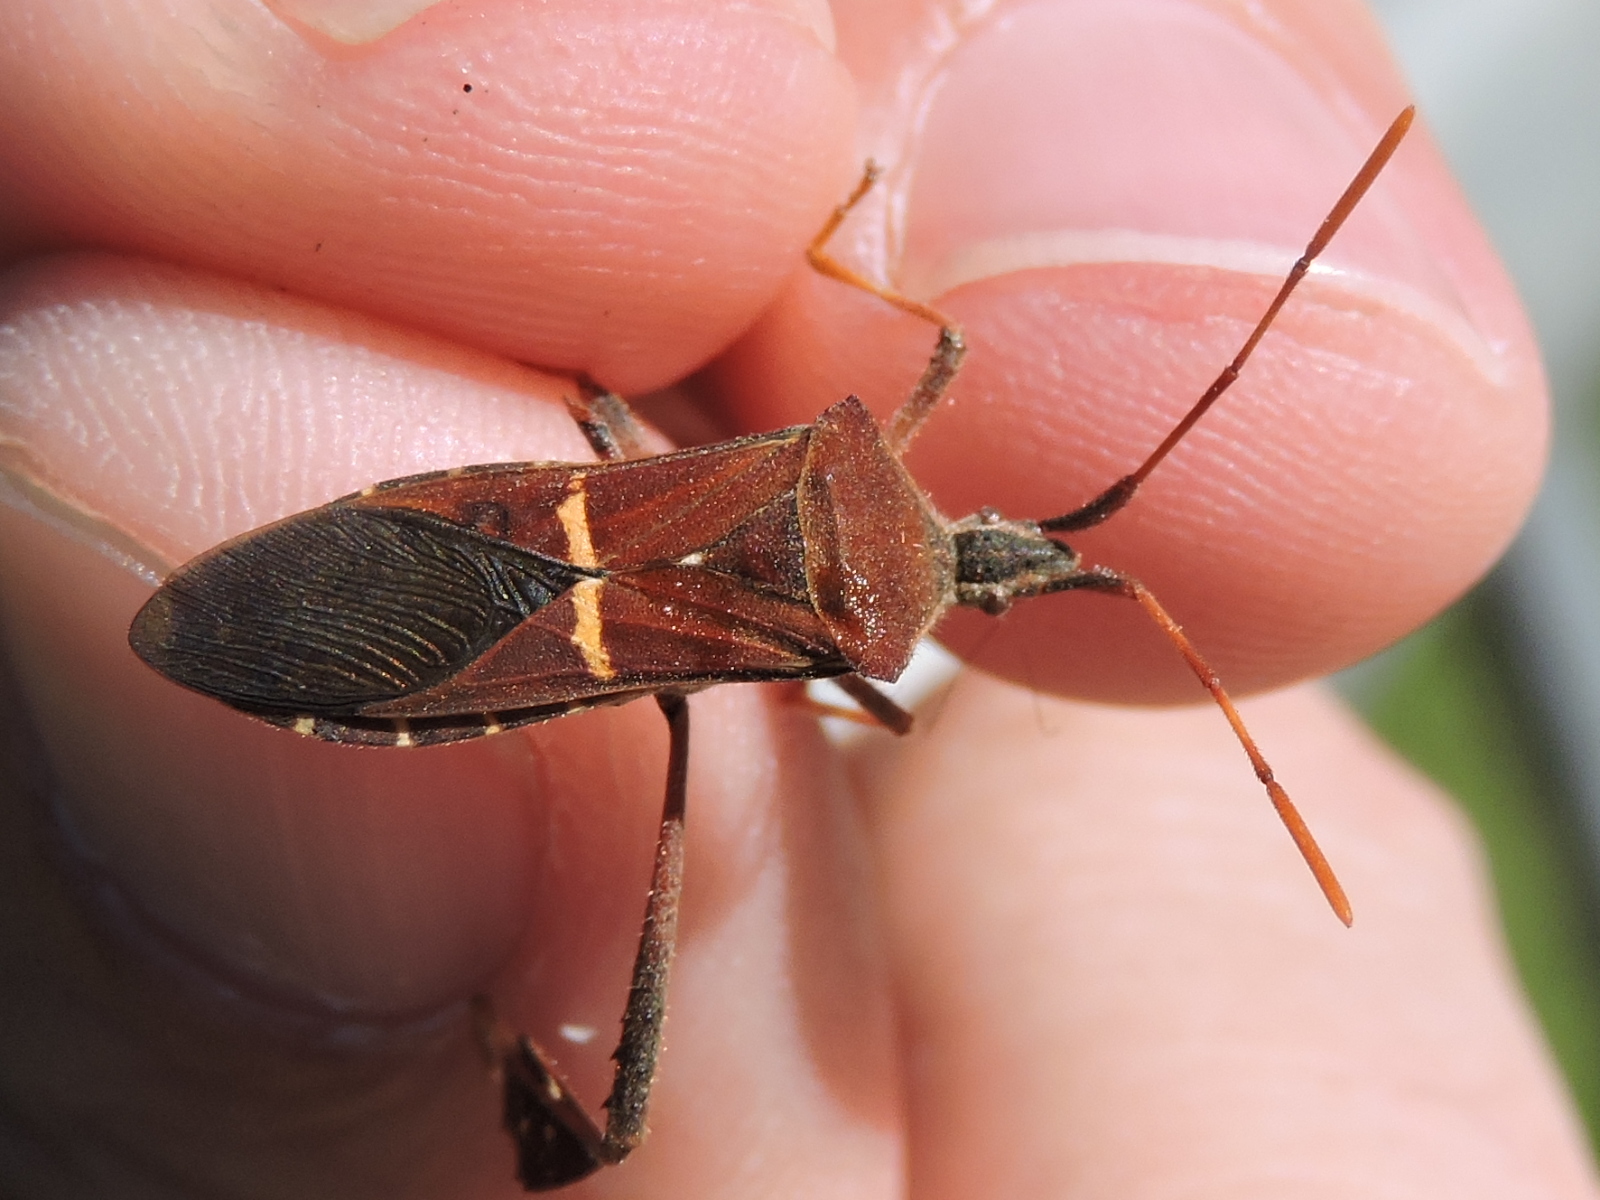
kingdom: Animalia
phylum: Arthropoda
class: Insecta
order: Hemiptera
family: Coreidae
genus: Leptoglossus
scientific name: Leptoglossus phyllopus
